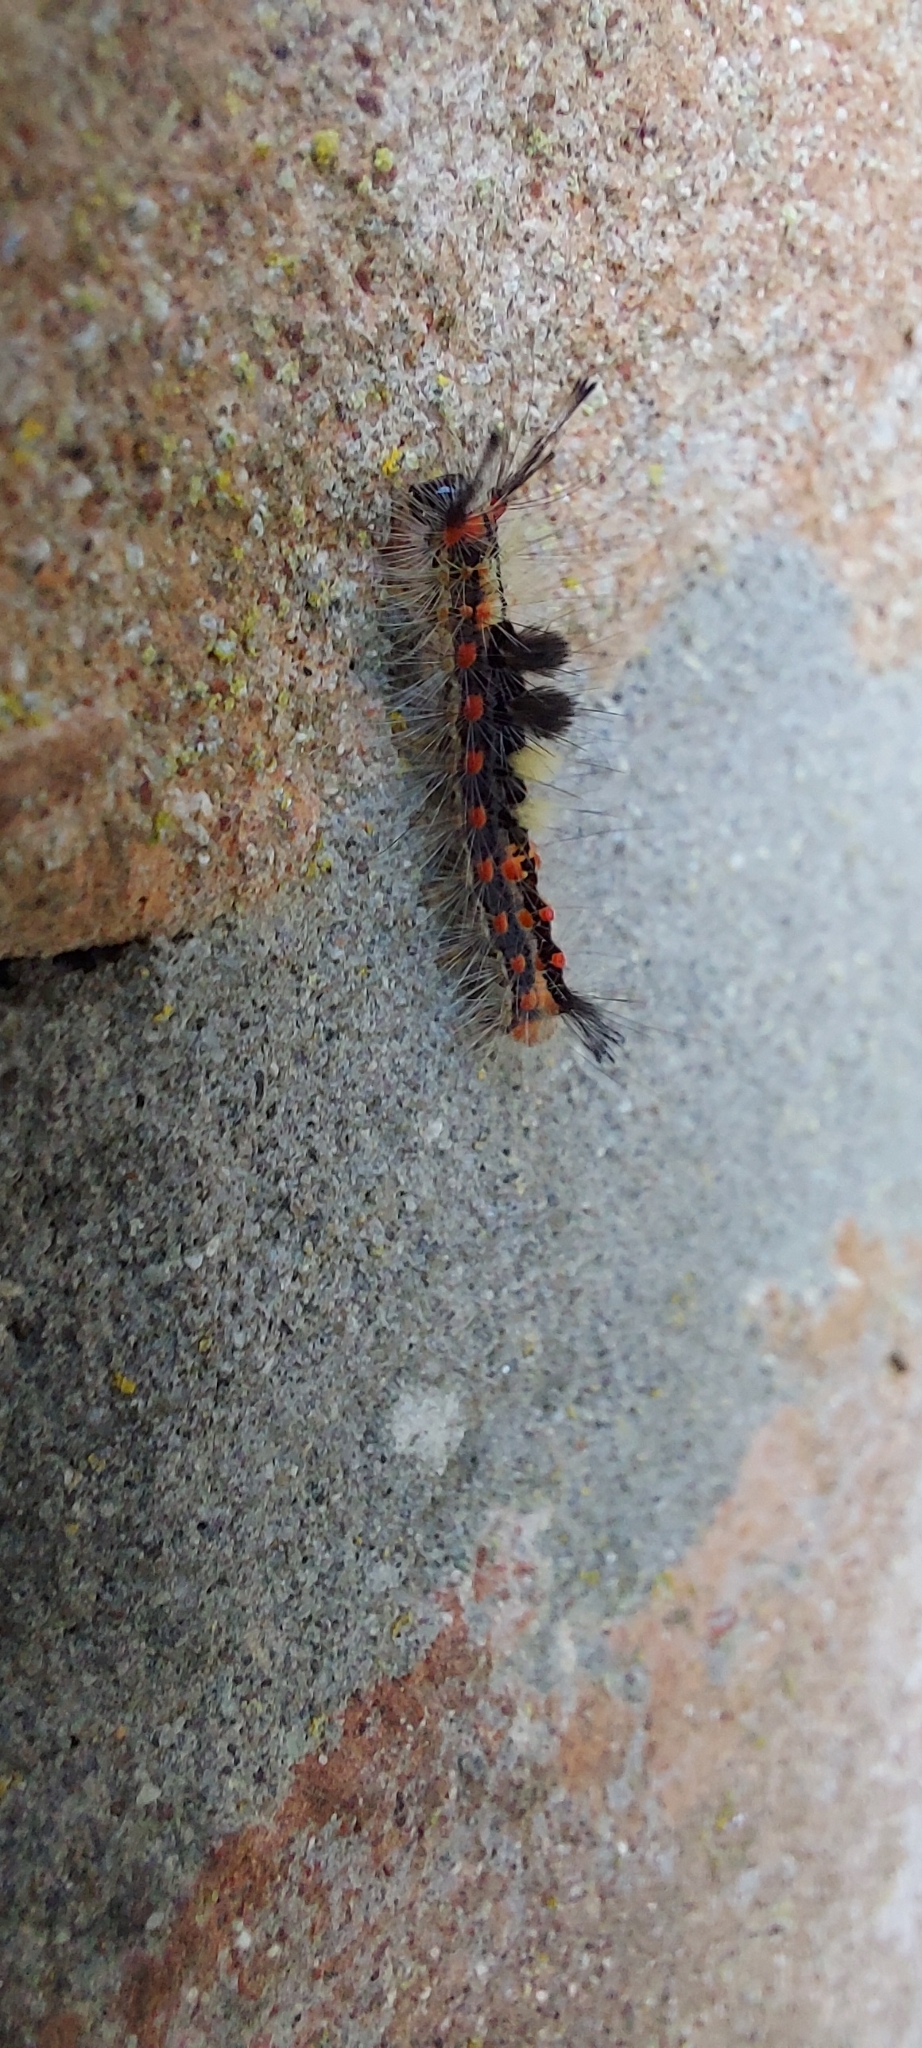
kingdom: Animalia
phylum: Arthropoda
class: Insecta
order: Lepidoptera
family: Erebidae
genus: Orgyia
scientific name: Orgyia antiqua
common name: Vapourer
